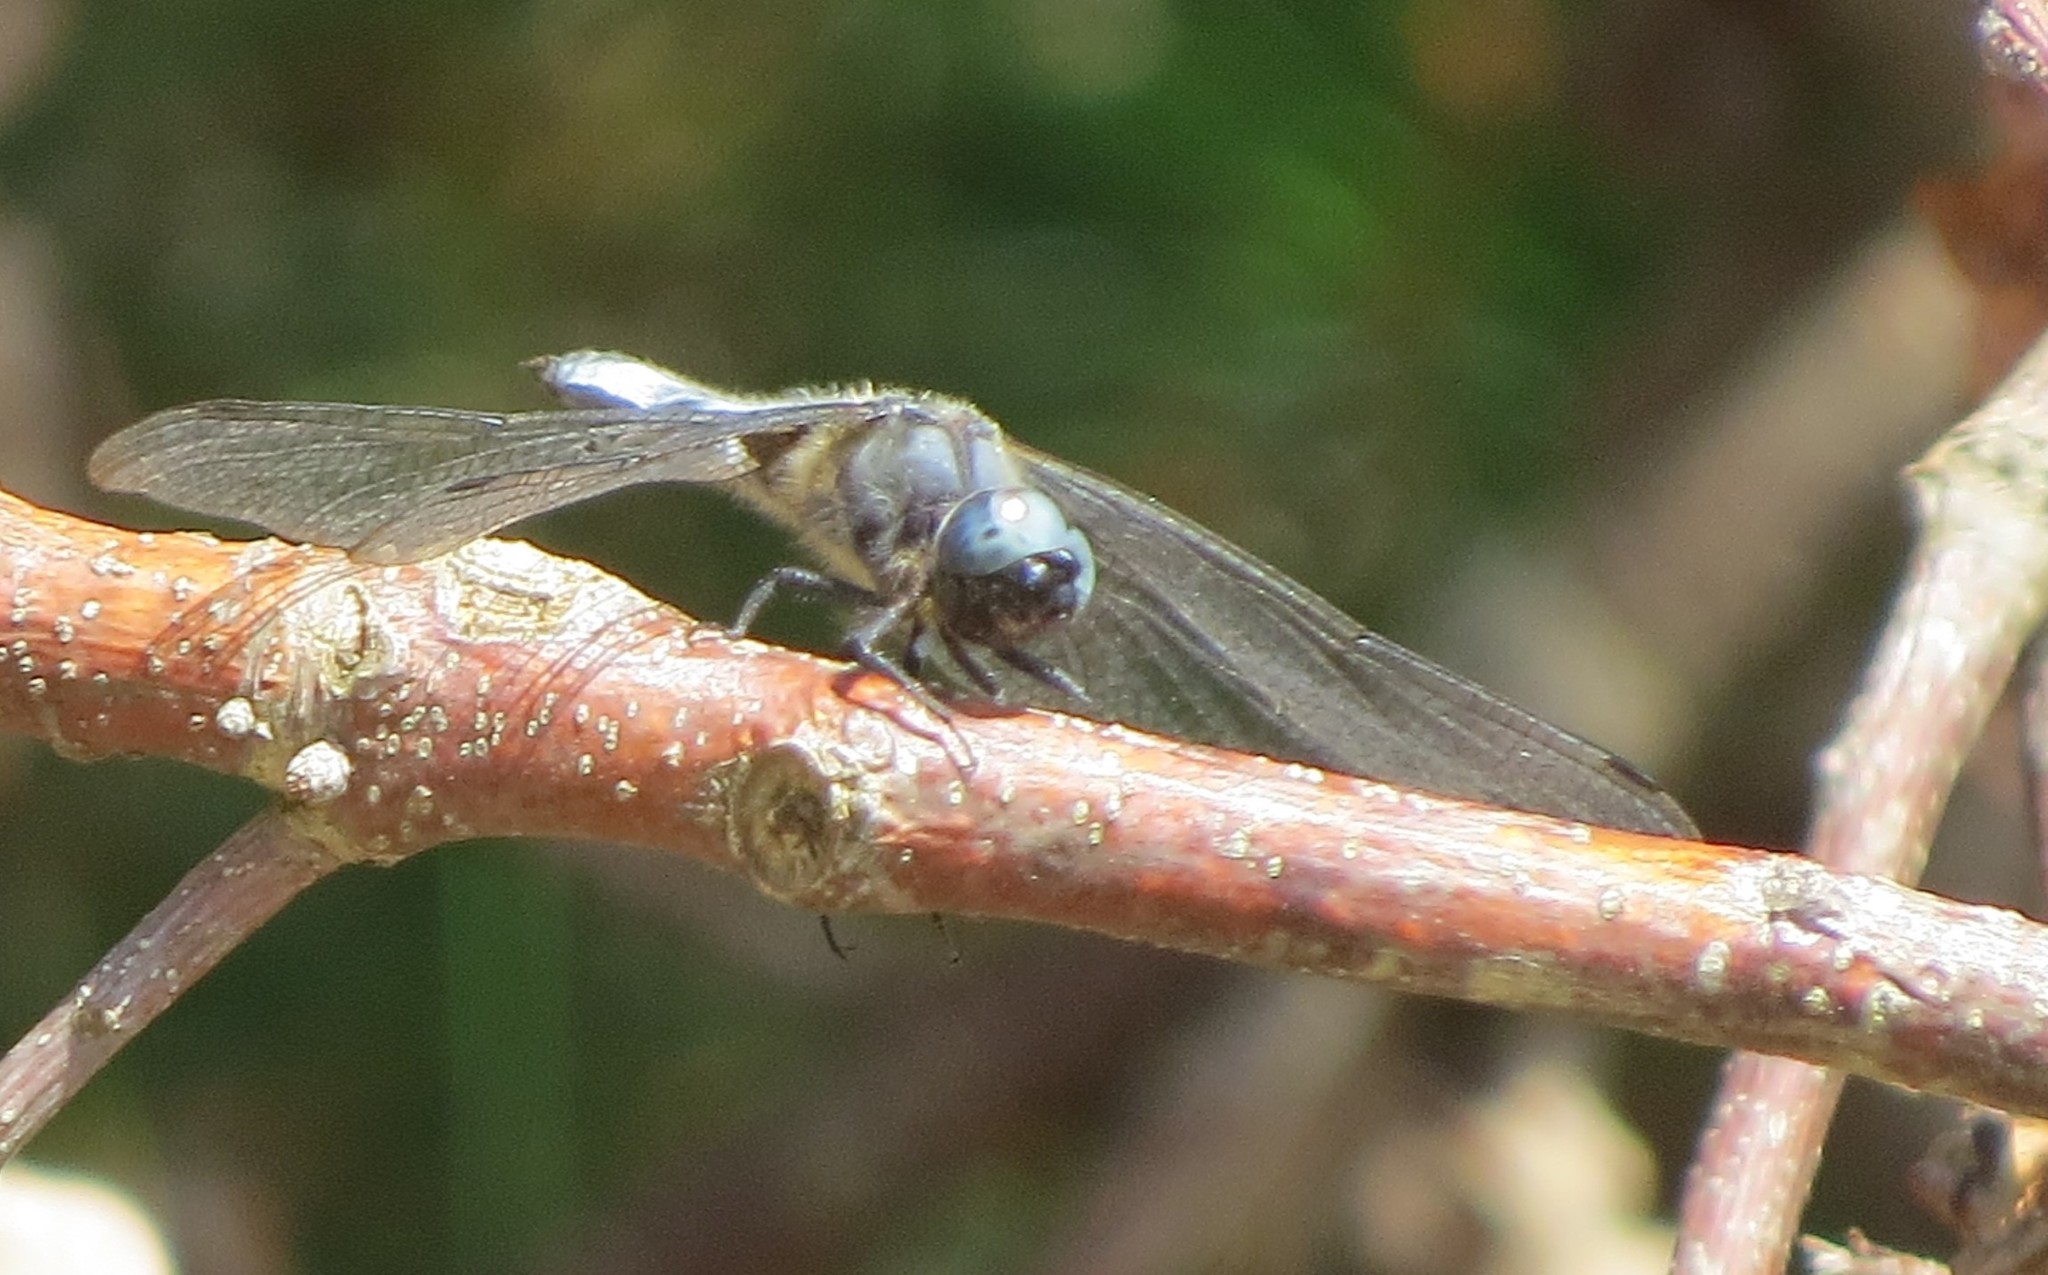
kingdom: Animalia
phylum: Arthropoda
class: Insecta
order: Odonata
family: Libellulidae
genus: Libellula
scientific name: Libellula fulva
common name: Blue chaser
